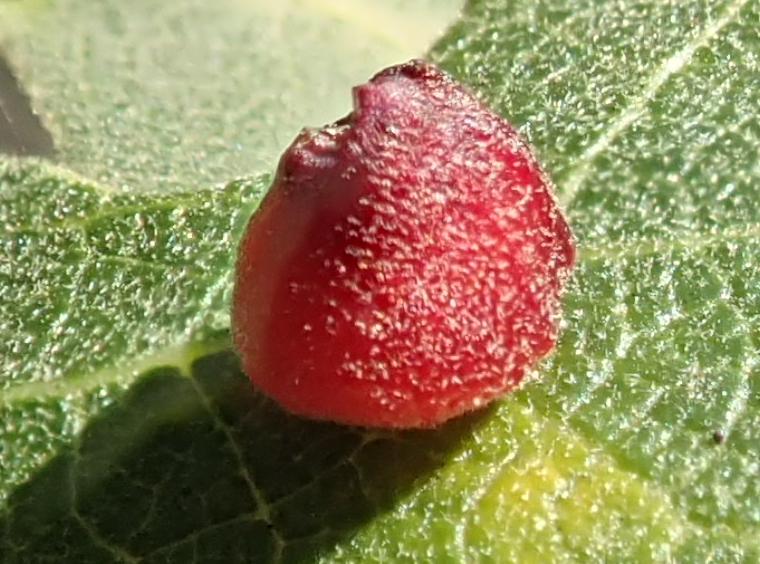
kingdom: Animalia
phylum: Arthropoda
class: Insecta
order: Hymenoptera
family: Cynipidae
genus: Andricus
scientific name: Andricus
